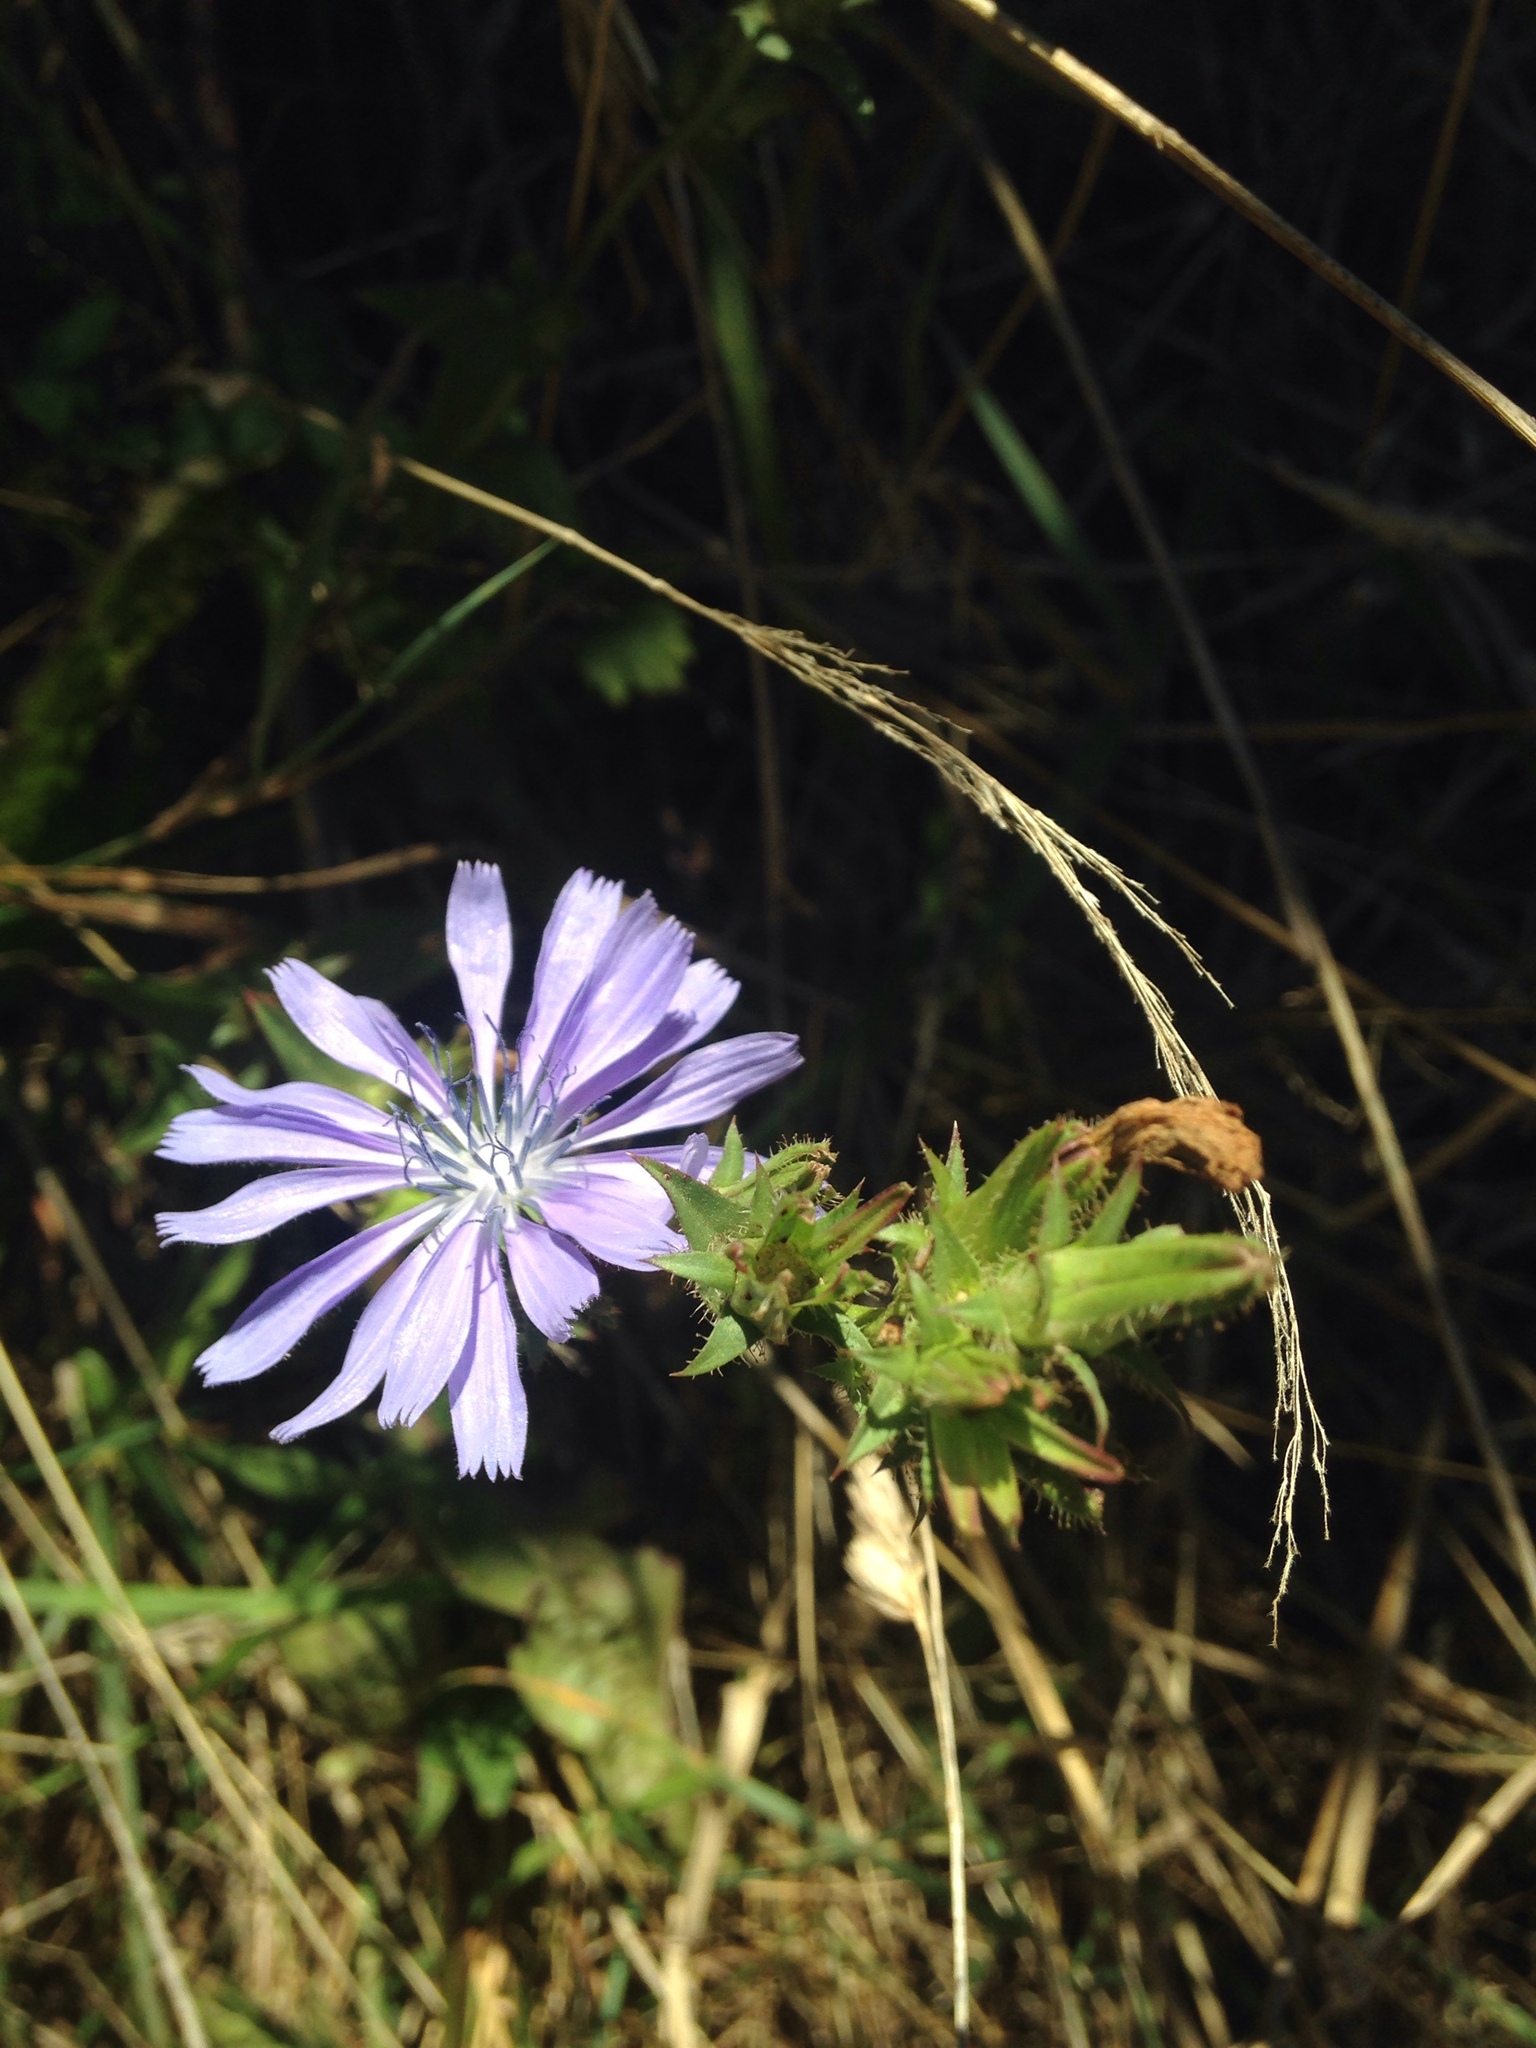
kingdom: Plantae
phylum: Tracheophyta
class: Magnoliopsida
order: Asterales
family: Asteraceae
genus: Cichorium
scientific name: Cichorium intybus
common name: Chicory
